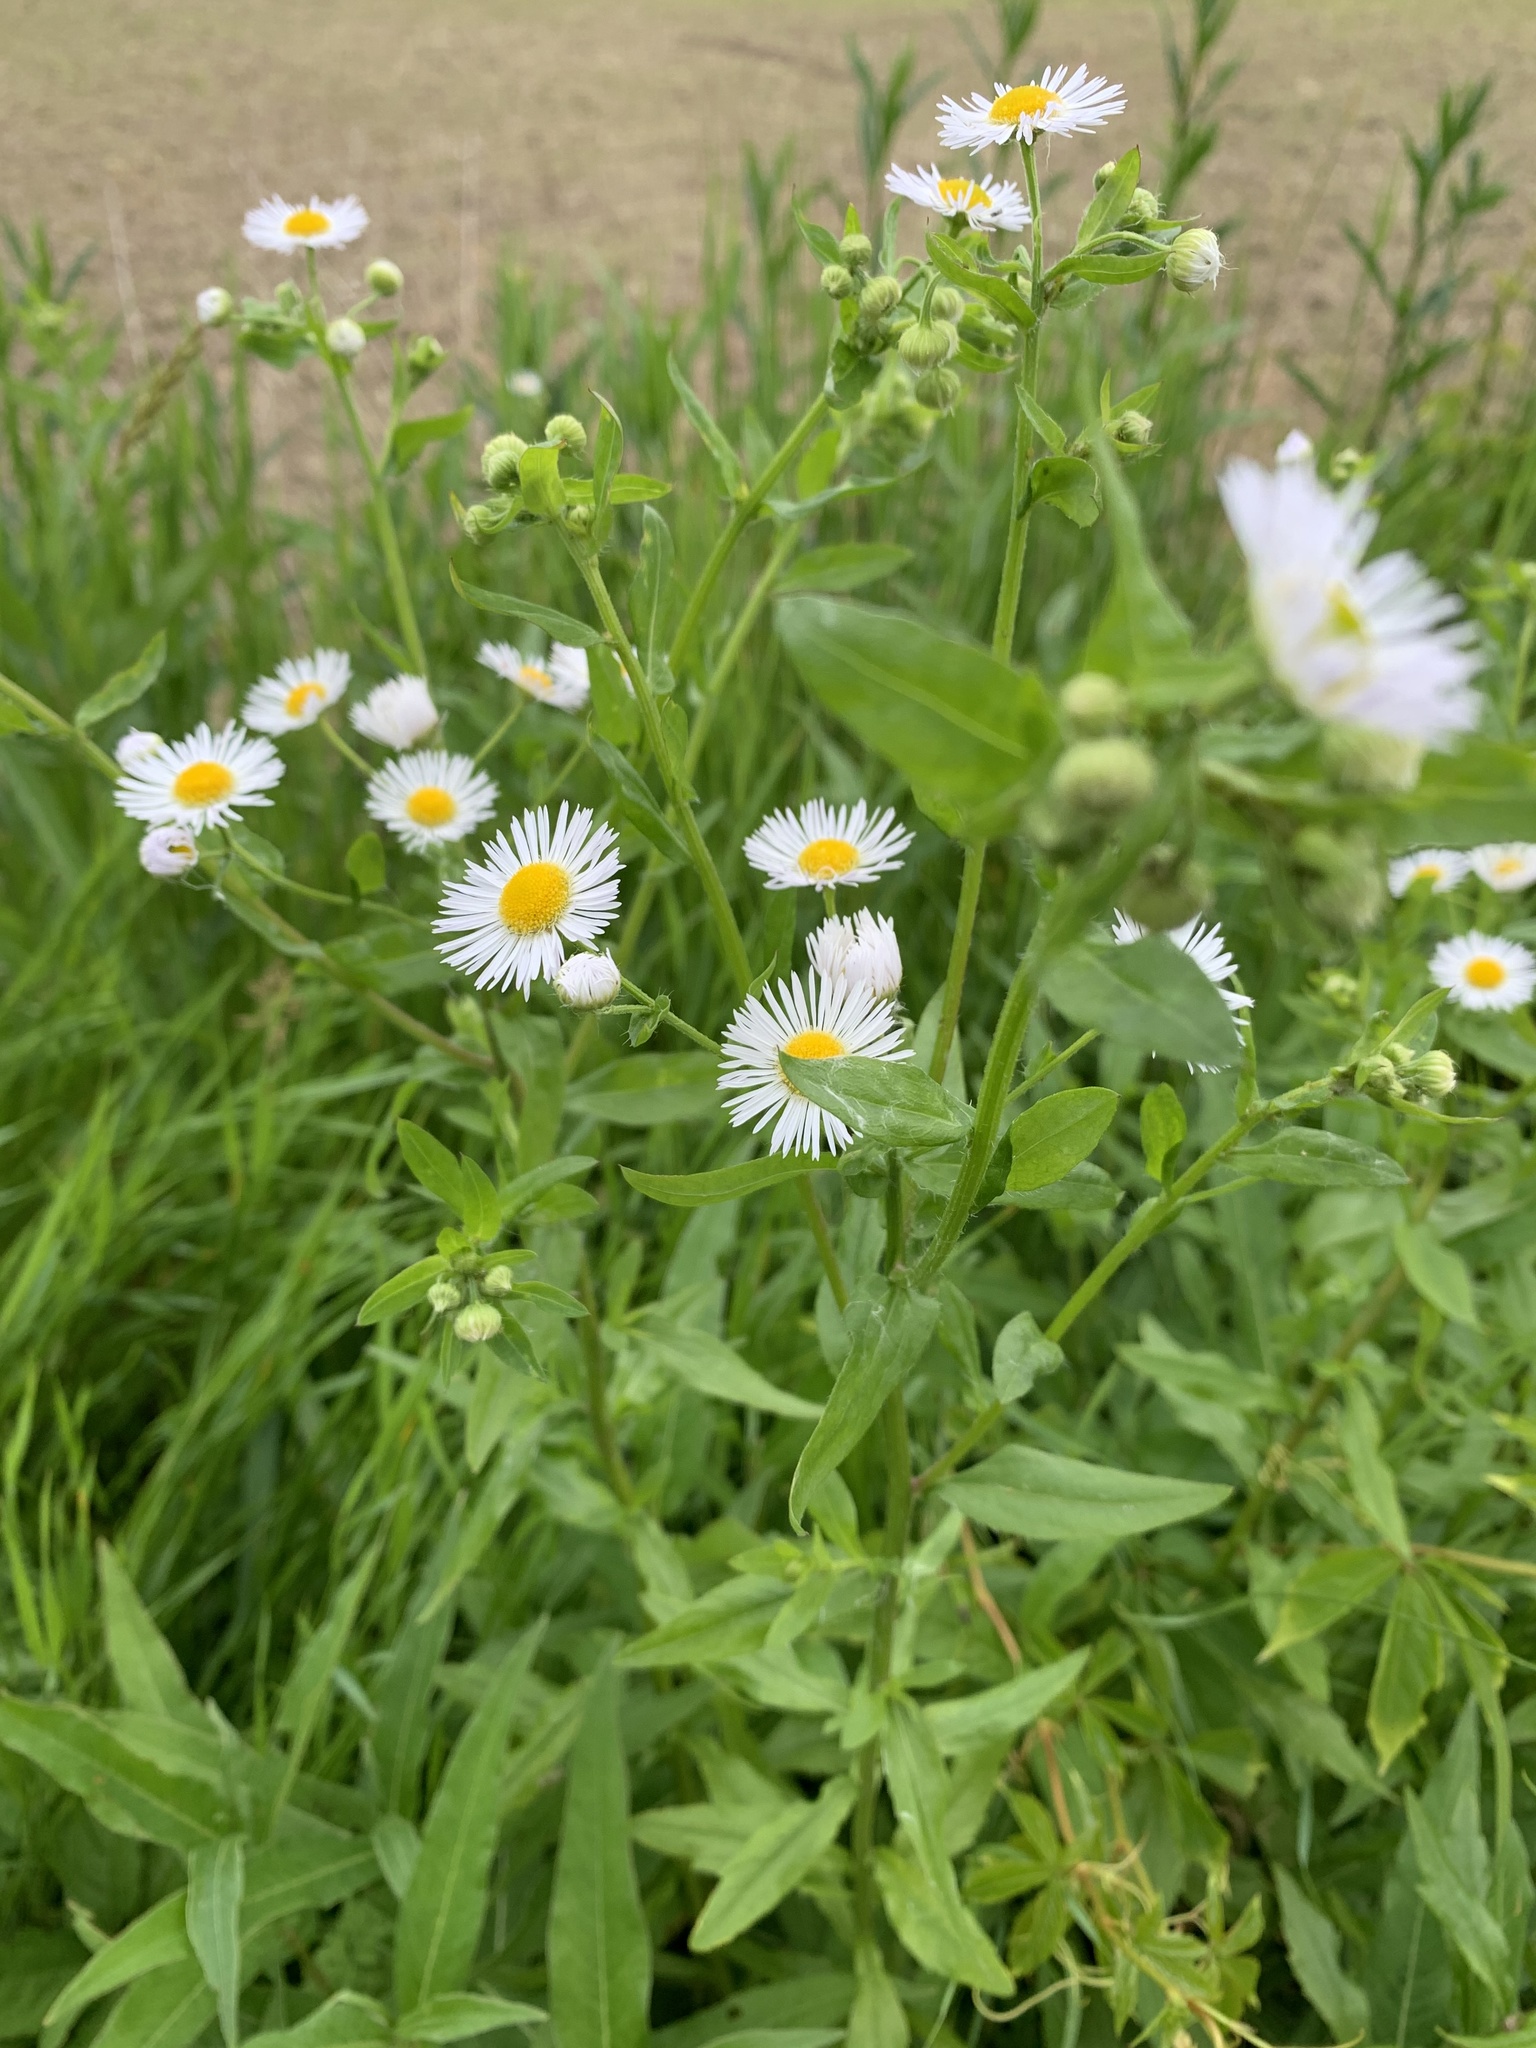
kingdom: Plantae
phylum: Tracheophyta
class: Magnoliopsida
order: Asterales
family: Asteraceae
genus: Erigeron
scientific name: Erigeron annuus
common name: Tall fleabane
